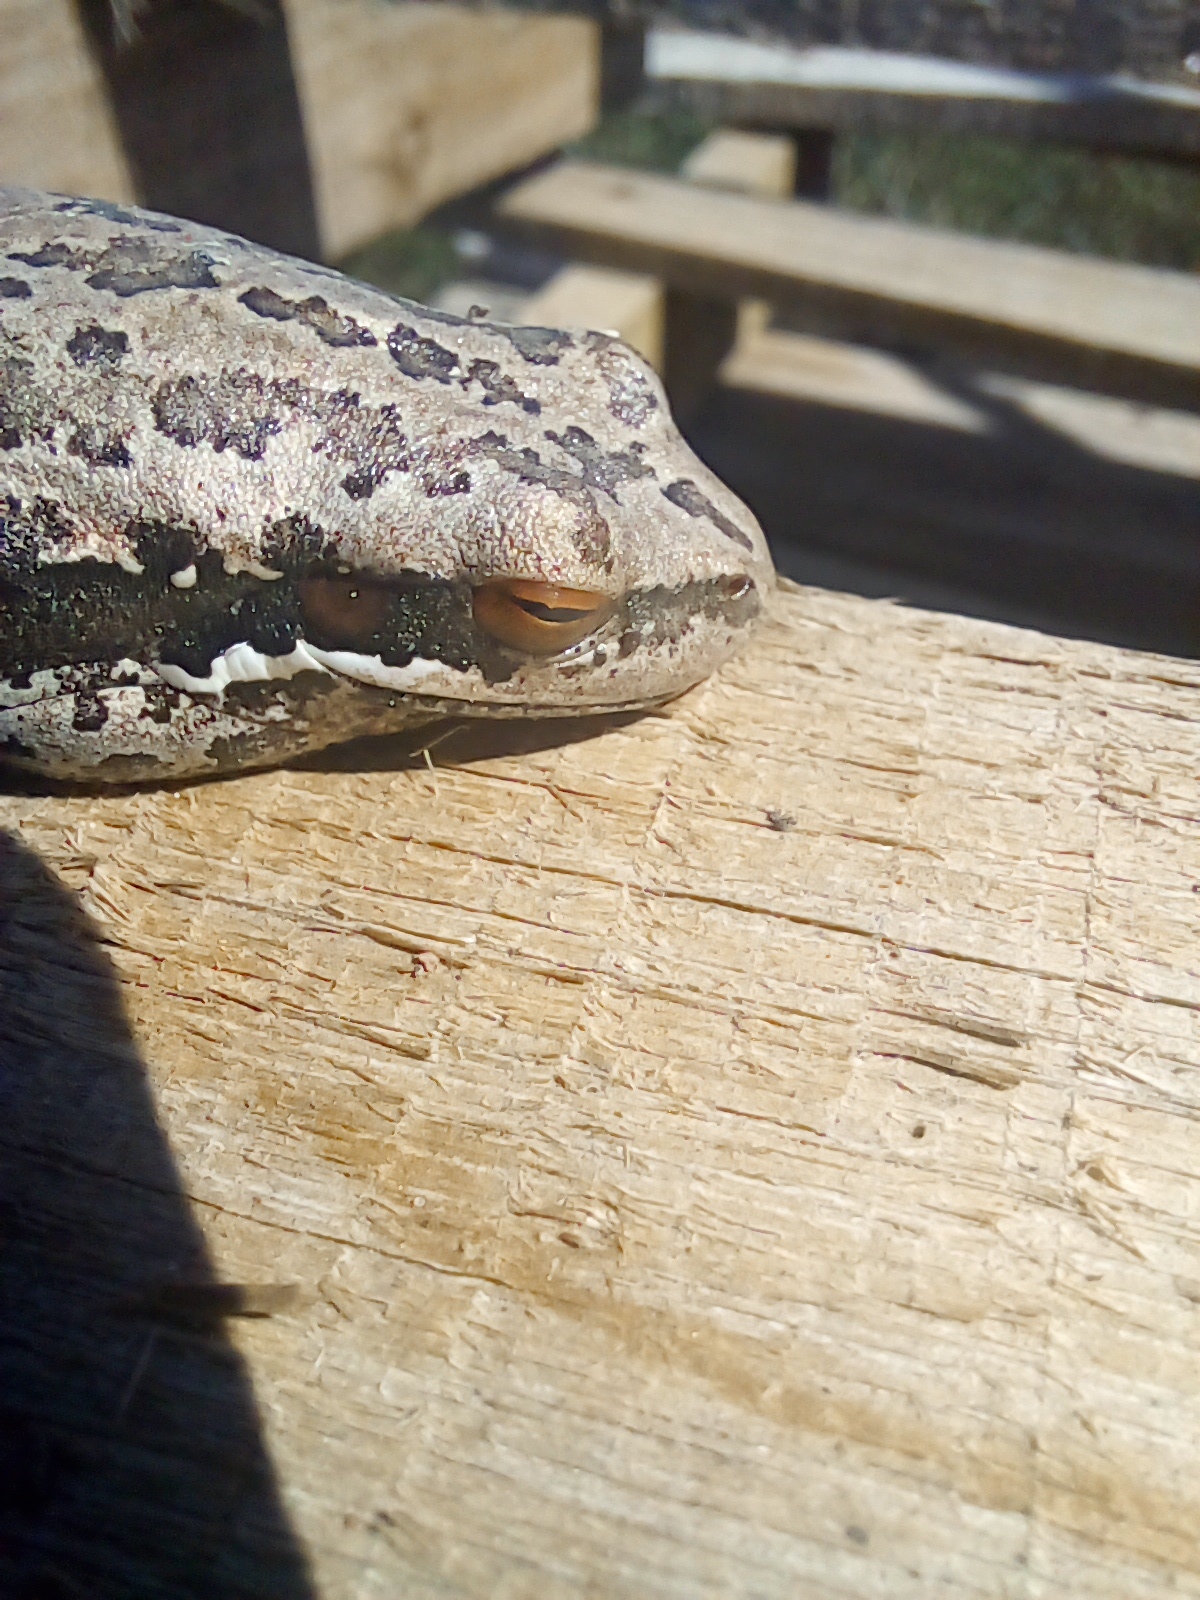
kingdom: Animalia
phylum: Chordata
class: Amphibia
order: Anura
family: Hylidae
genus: Boana
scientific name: Boana pulchella
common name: Montevideo treefrog
